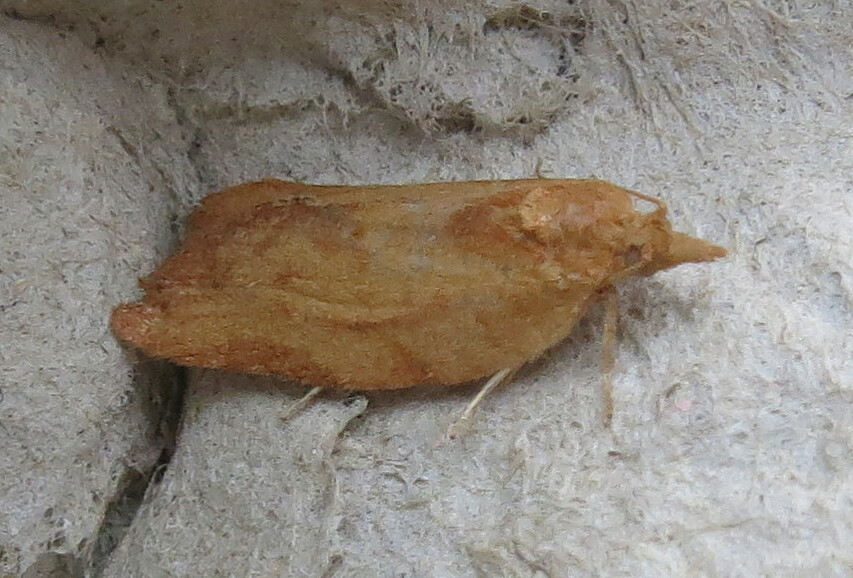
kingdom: Animalia
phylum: Arthropoda
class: Insecta
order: Lepidoptera
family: Tortricidae
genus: Epiphyas
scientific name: Epiphyas postvittana
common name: Light brown apple moth
